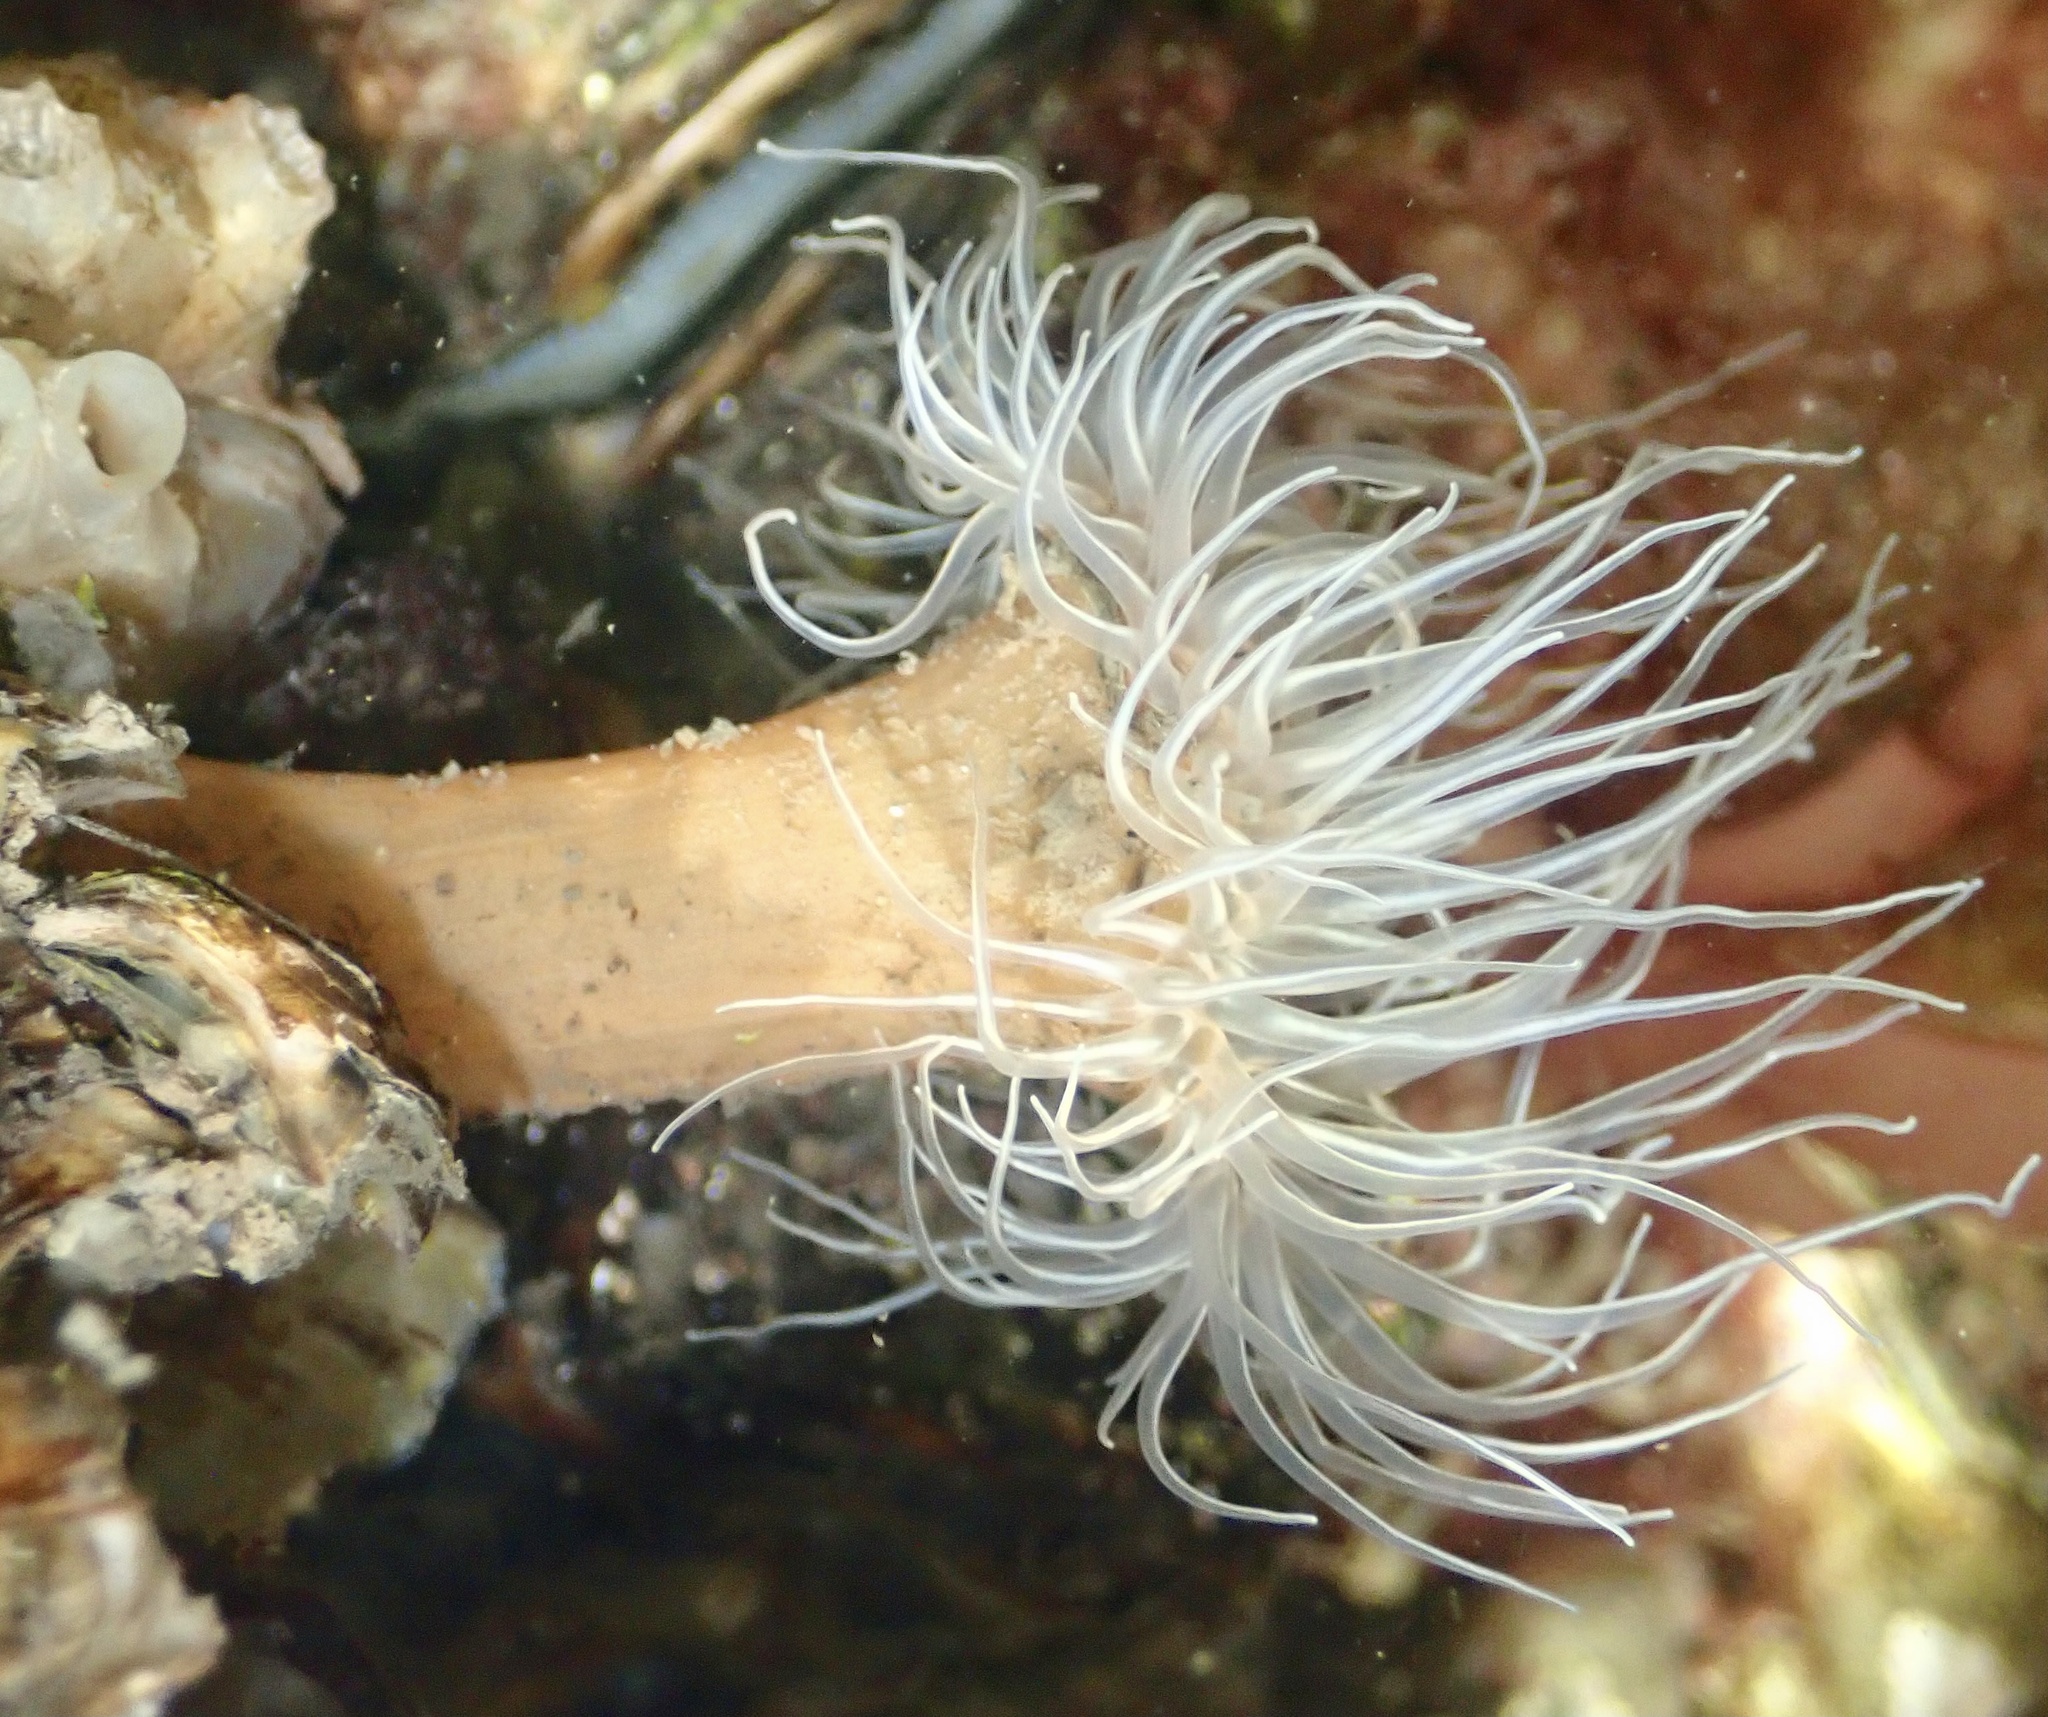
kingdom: Animalia
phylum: Cnidaria
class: Anthozoa
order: Actiniaria
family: Sagartiidae
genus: Sagartia
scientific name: Sagartia undata
